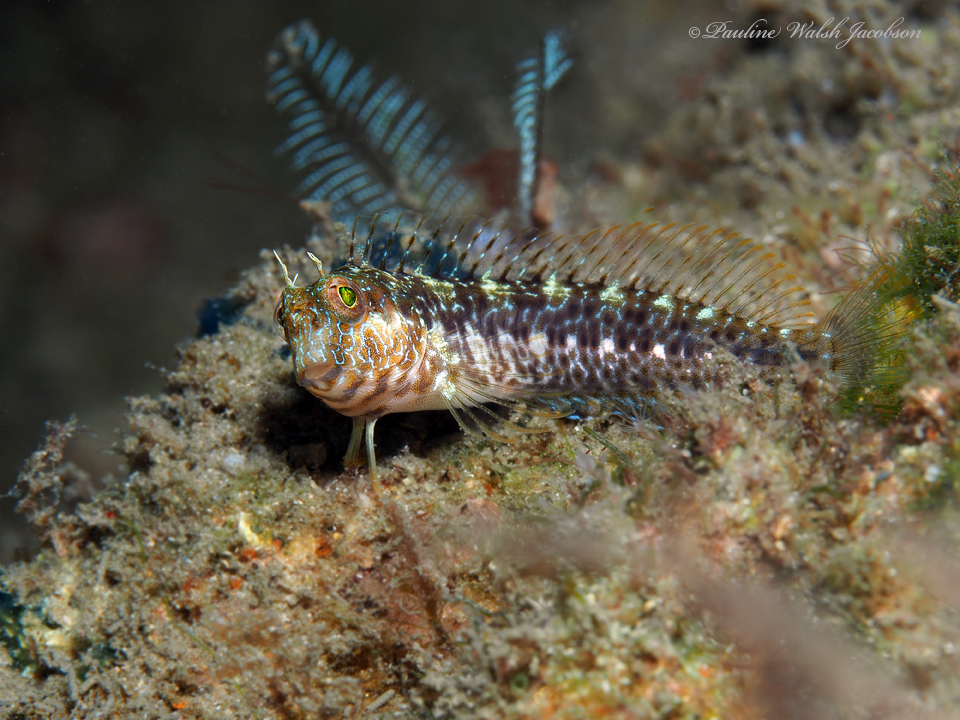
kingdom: Animalia
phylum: Chordata
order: Perciformes
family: Blenniidae
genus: Parablennius
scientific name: Parablennius marmoreus
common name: Seaweed blenny
